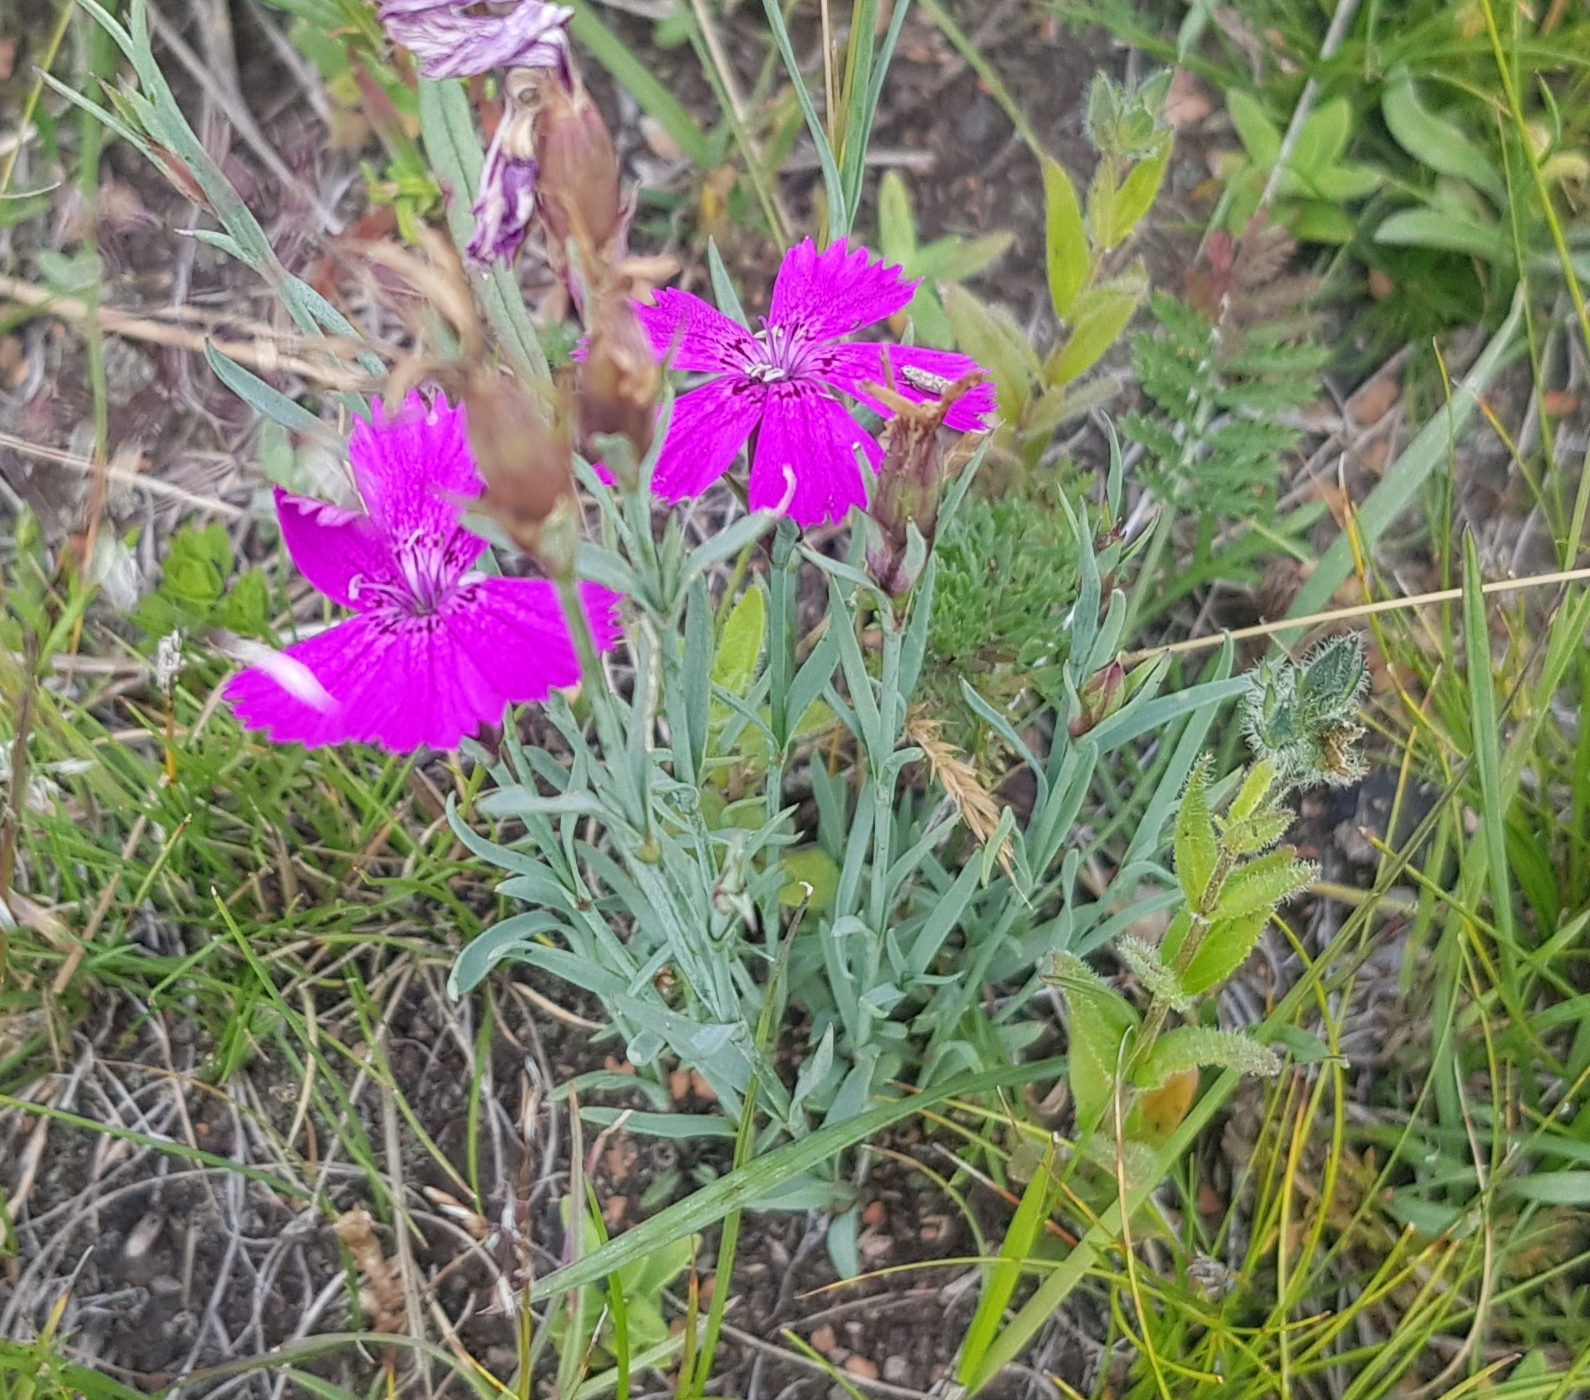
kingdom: Plantae
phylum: Tracheophyta
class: Magnoliopsida
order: Caryophyllales
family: Caryophyllaceae
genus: Dianthus
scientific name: Dianthus chinensis
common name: Rainbow pink
